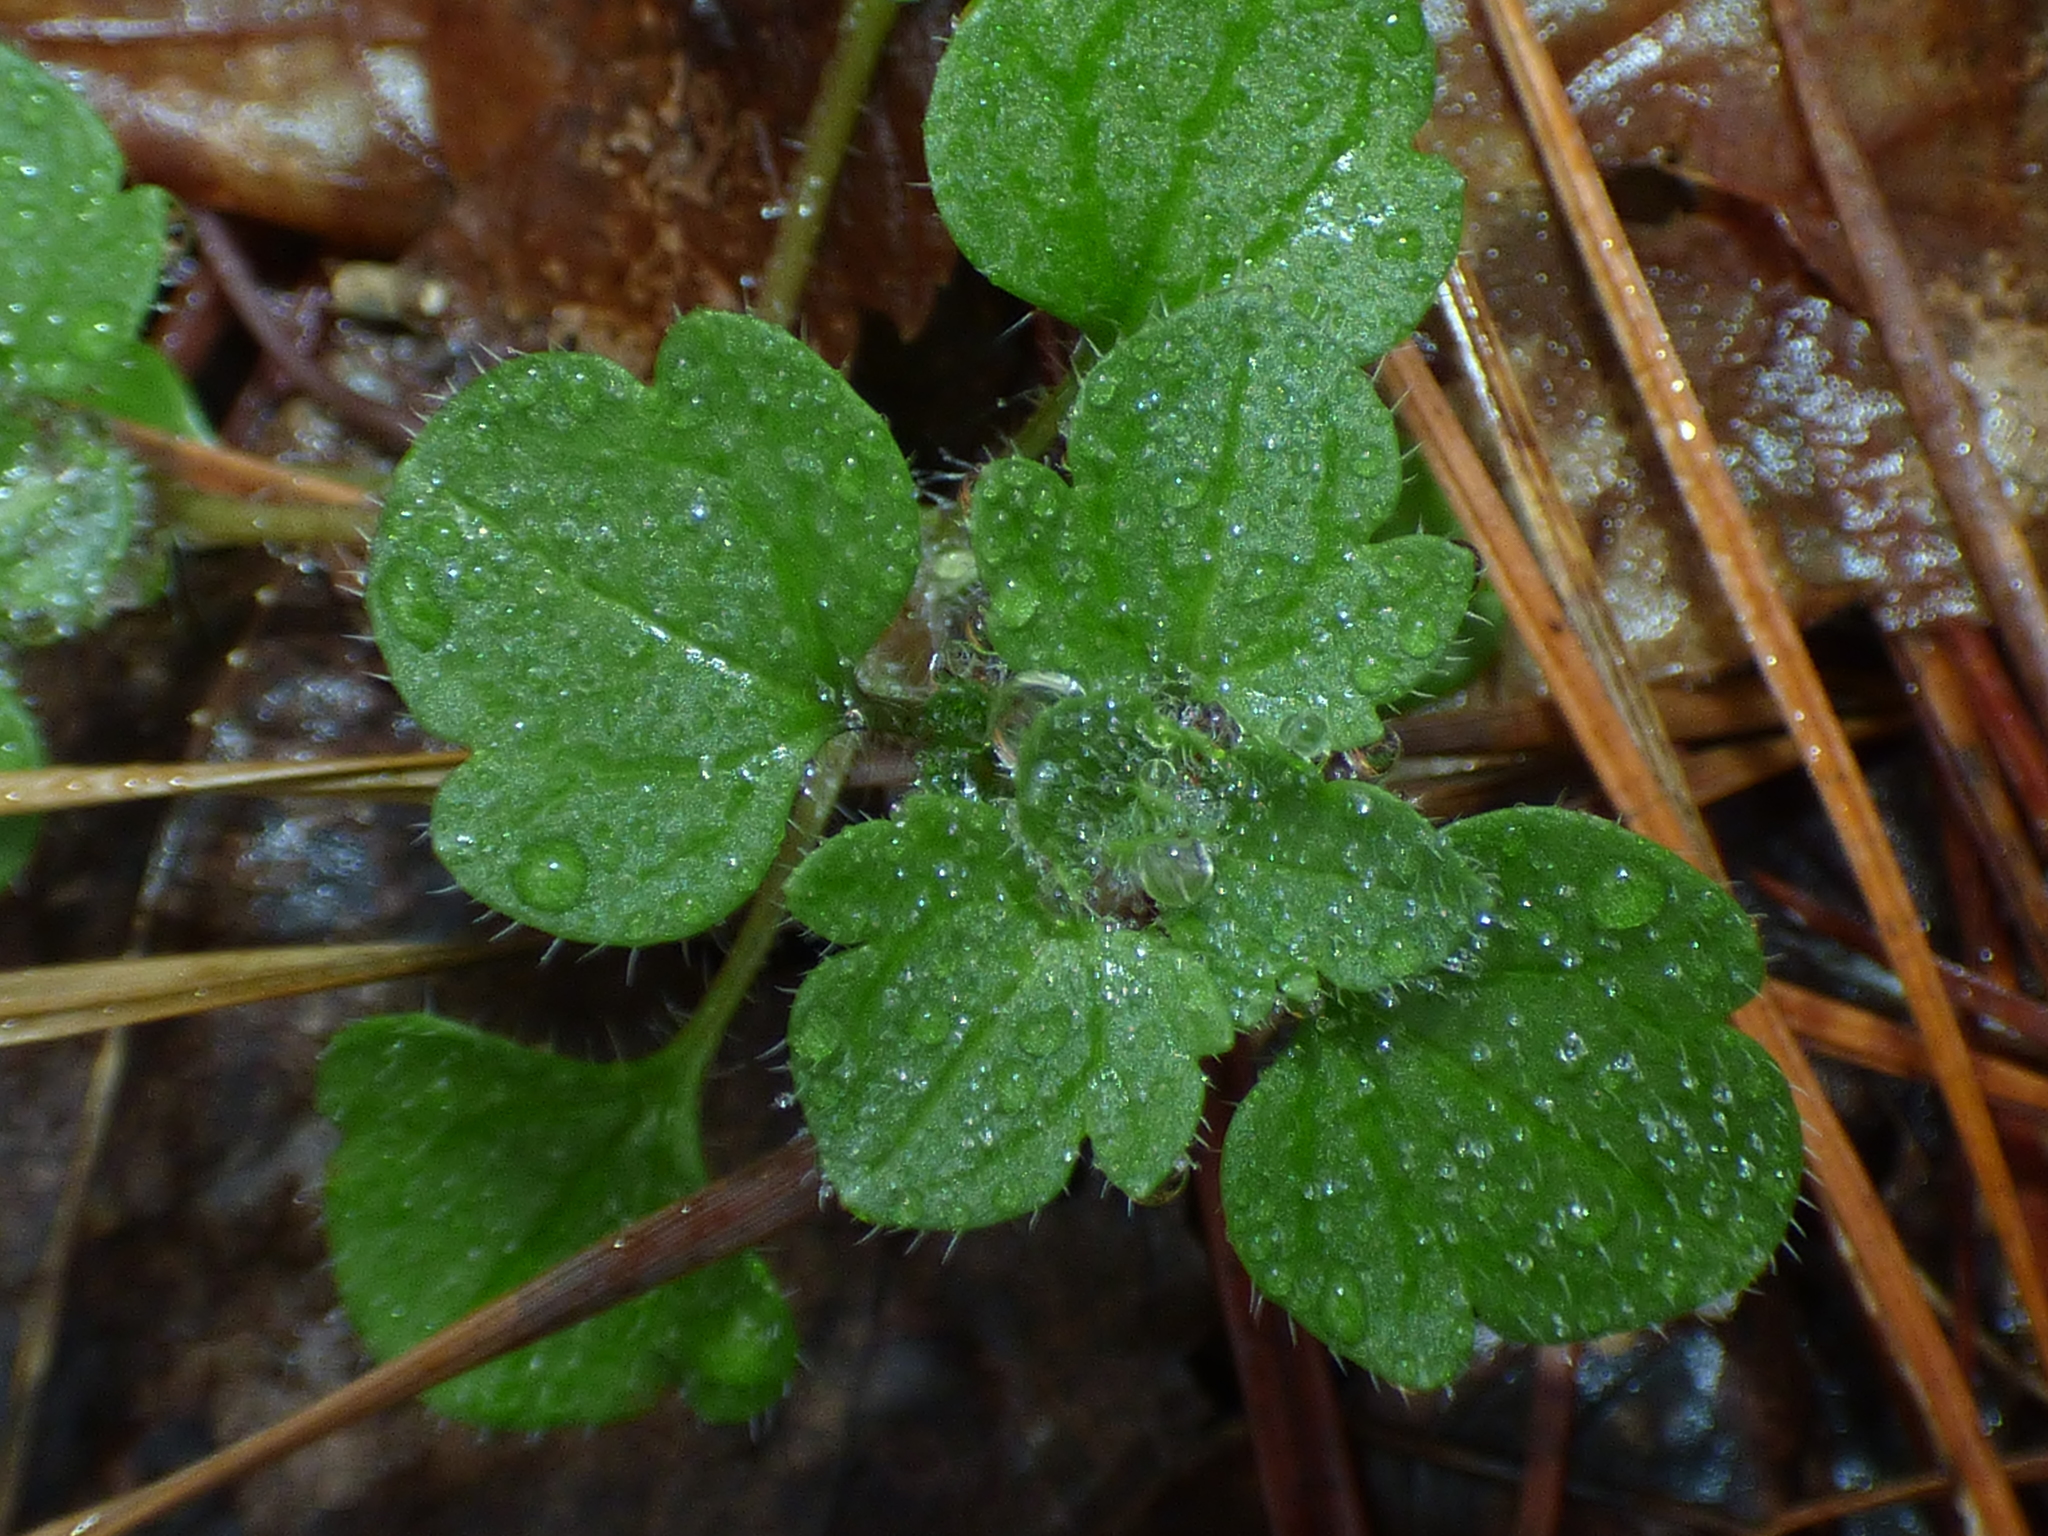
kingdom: Plantae
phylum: Tracheophyta
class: Magnoliopsida
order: Lamiales
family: Plantaginaceae
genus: Veronica
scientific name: Veronica hederifolia
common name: Ivy-leaved speedwell
